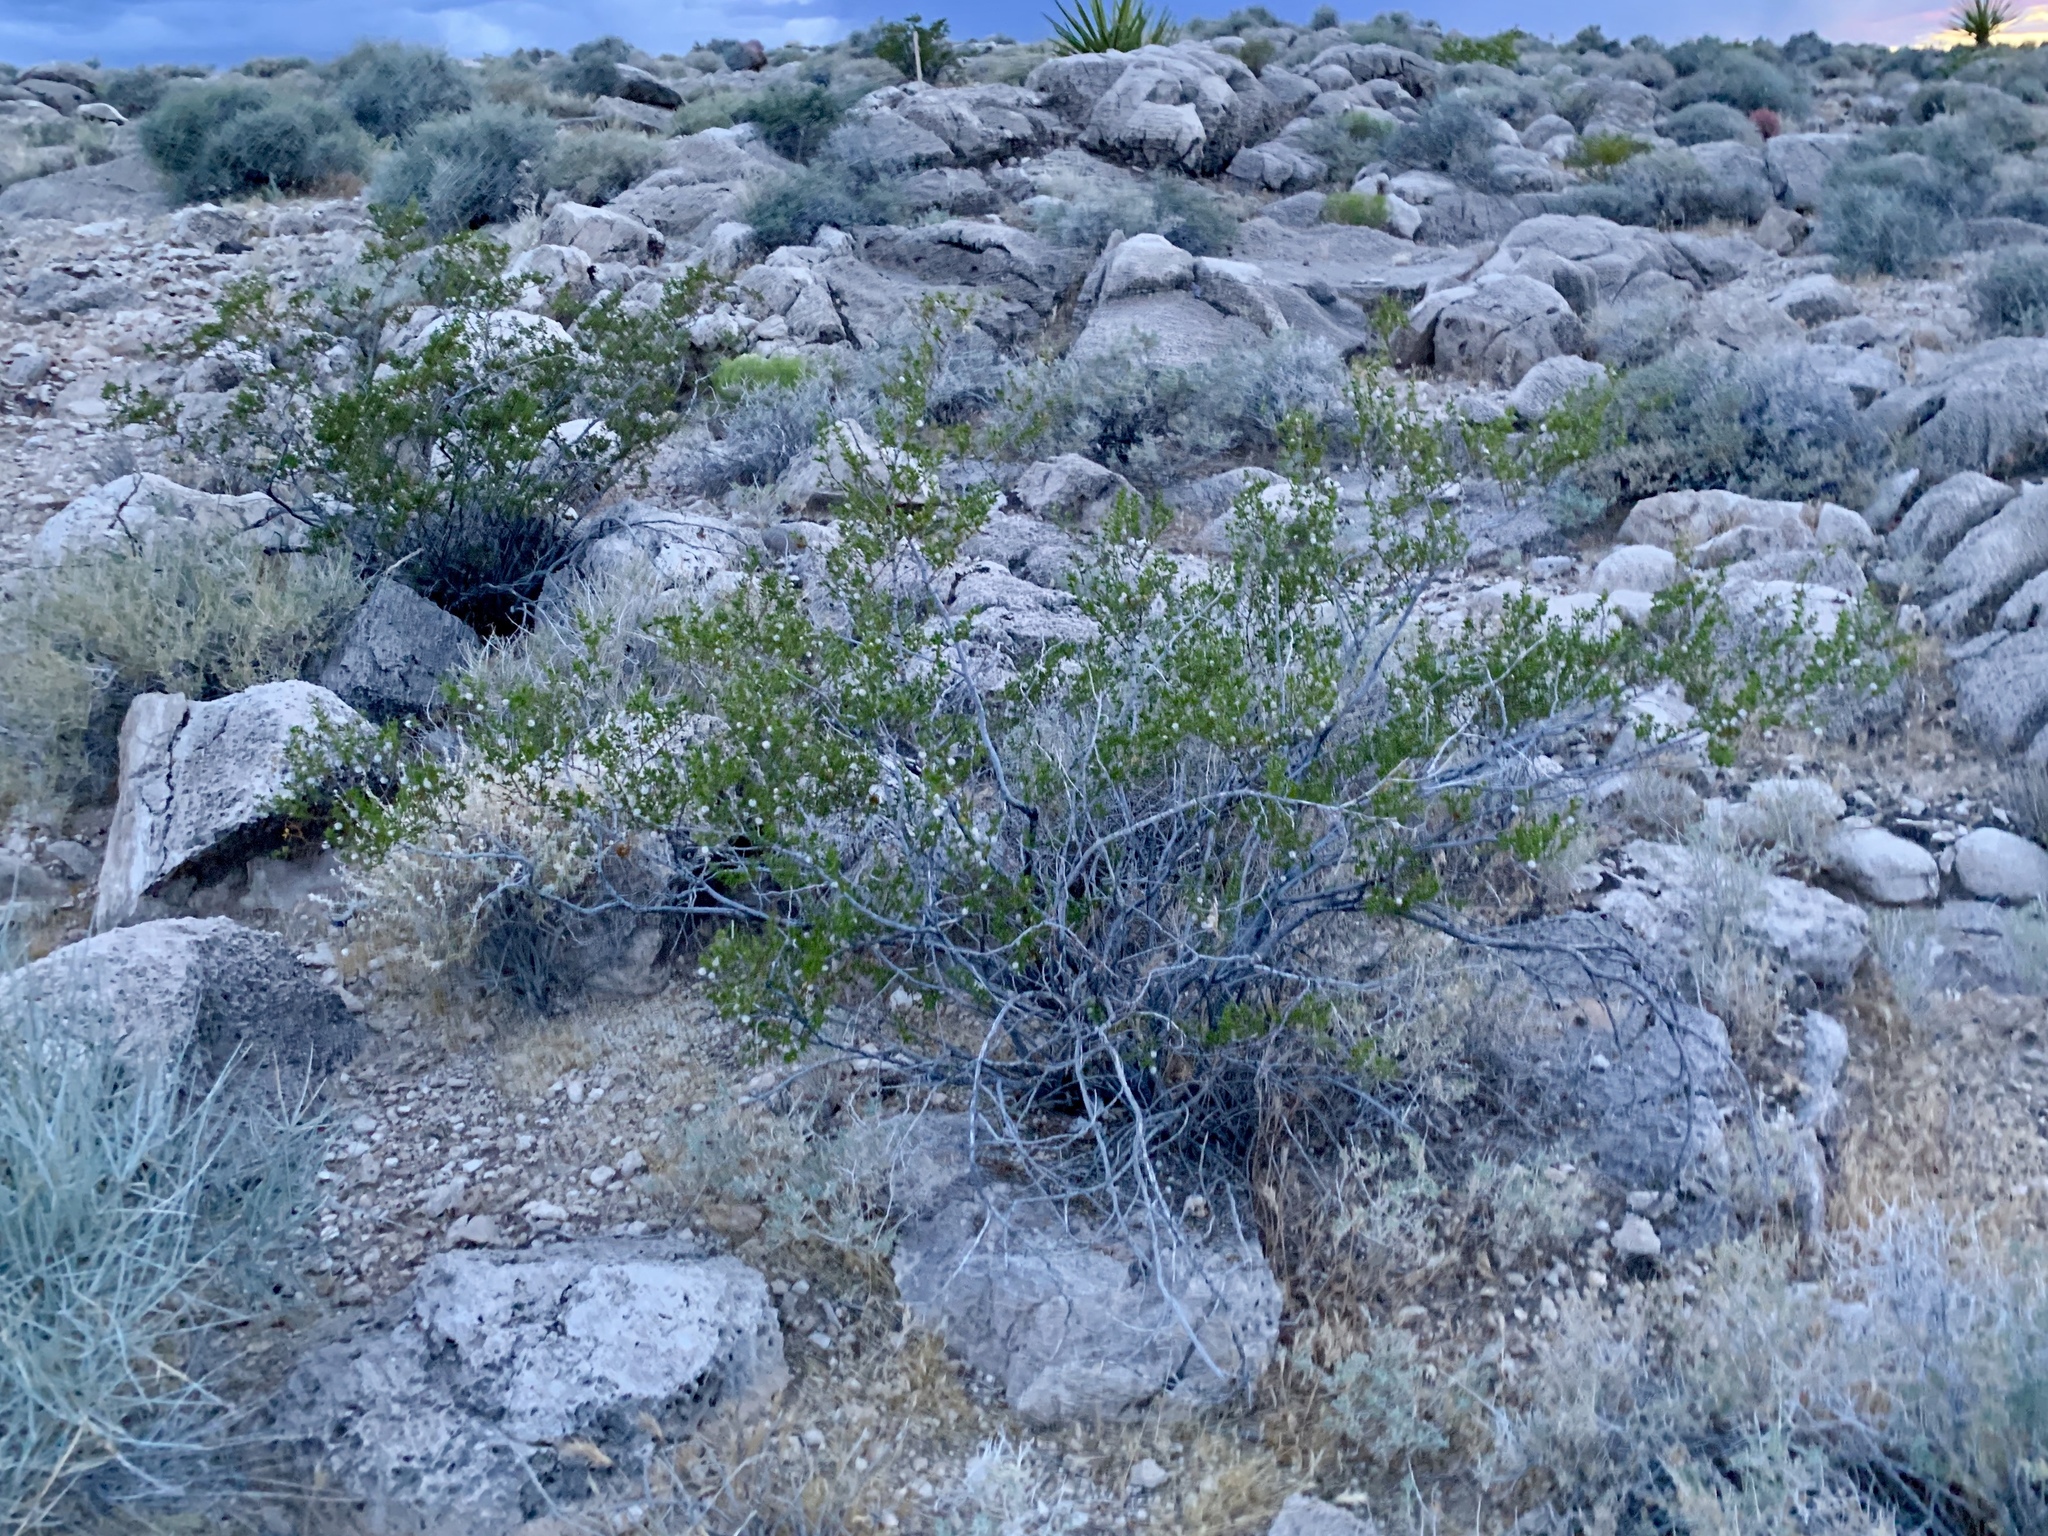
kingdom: Plantae
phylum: Tracheophyta
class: Magnoliopsida
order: Zygophyllales
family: Zygophyllaceae
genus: Larrea
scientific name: Larrea tridentata
